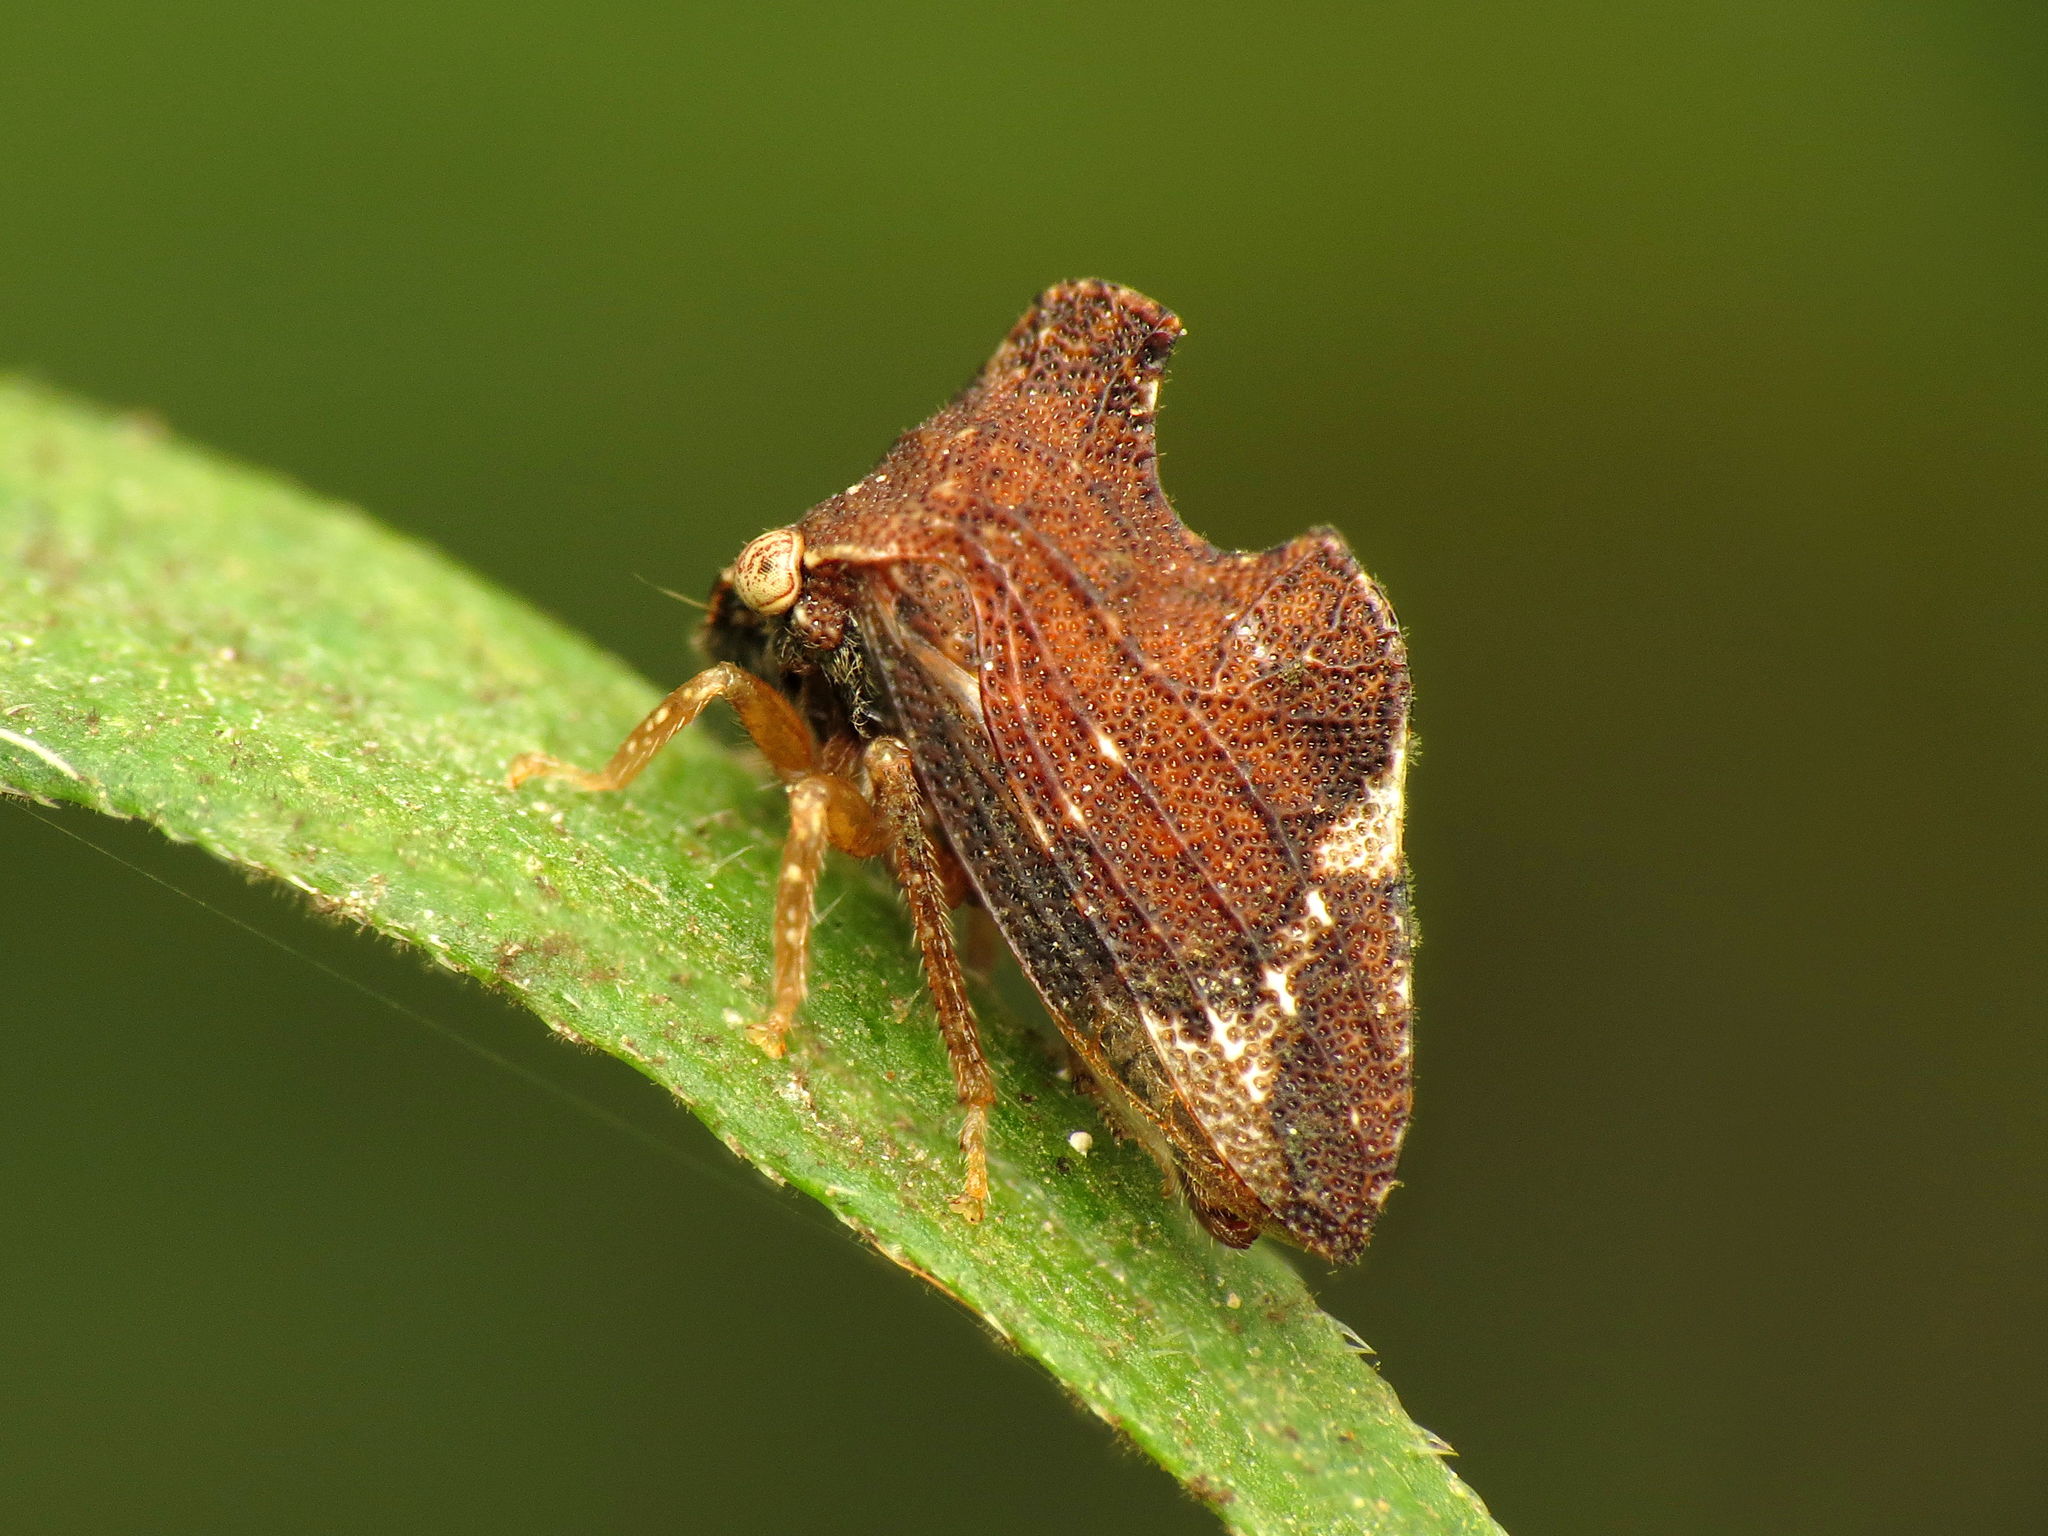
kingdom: Animalia
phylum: Arthropoda
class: Insecta
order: Hemiptera
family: Membracidae
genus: Entylia
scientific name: Entylia carinata
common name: Keeled treehopper
